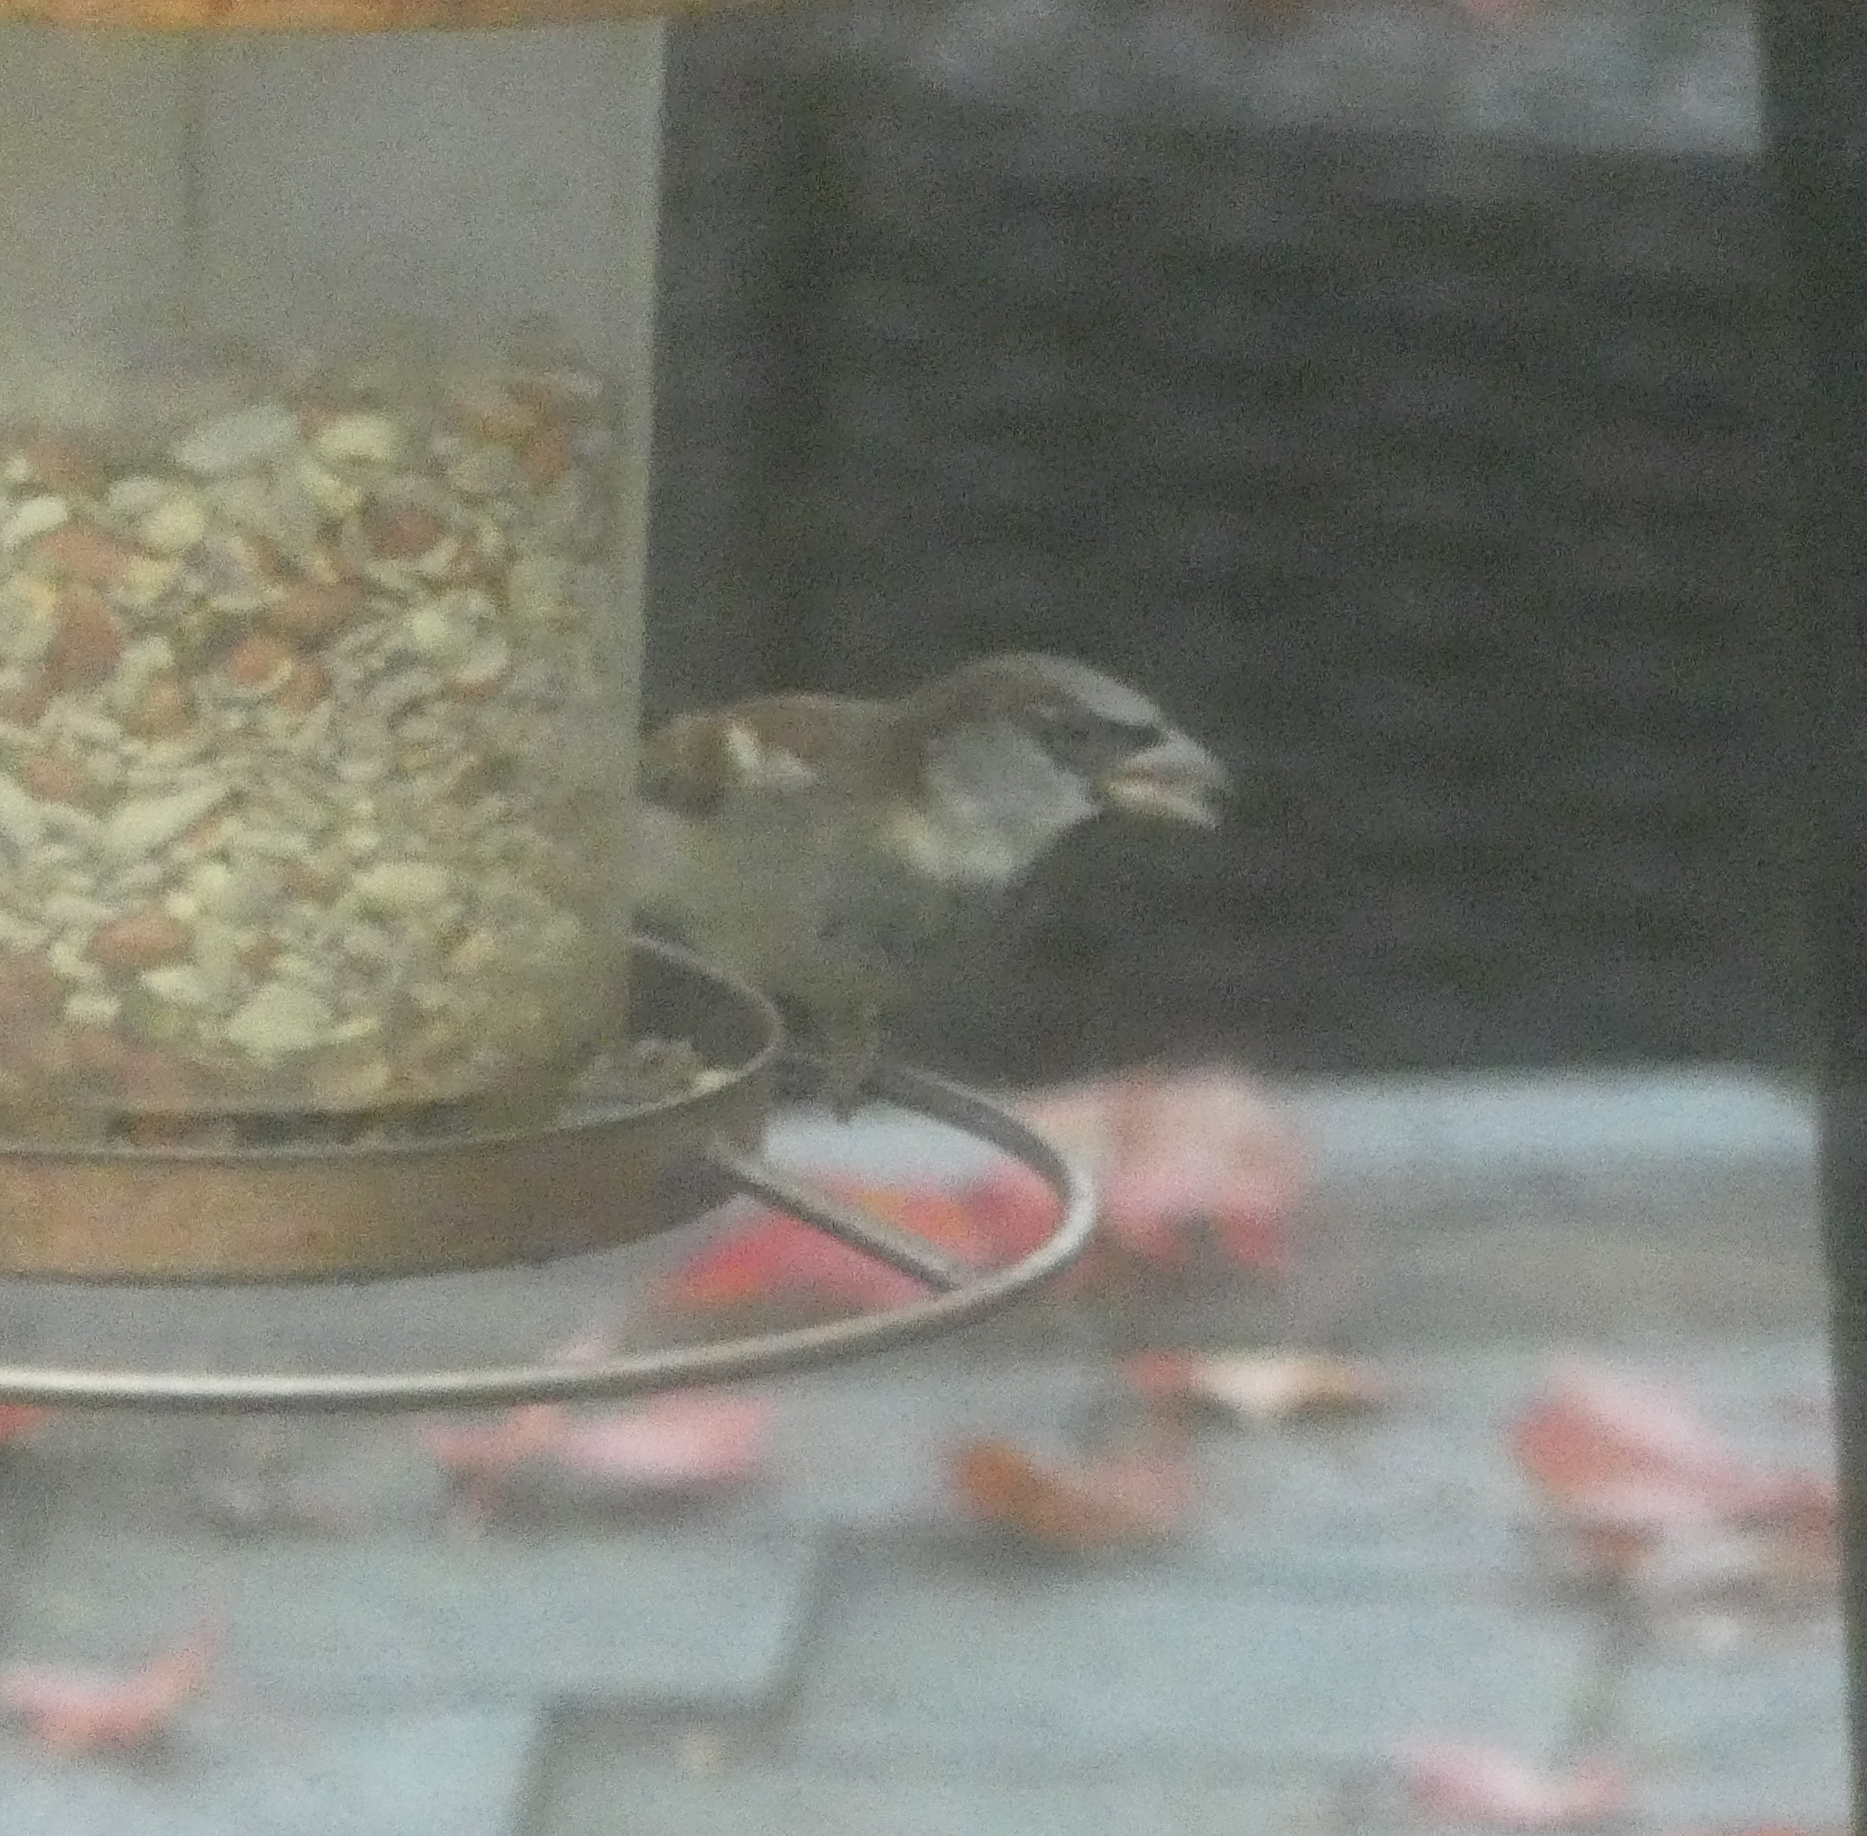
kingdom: Animalia
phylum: Chordata
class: Aves
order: Passeriformes
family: Passeridae
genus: Passer
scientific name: Passer domesticus
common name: House sparrow
